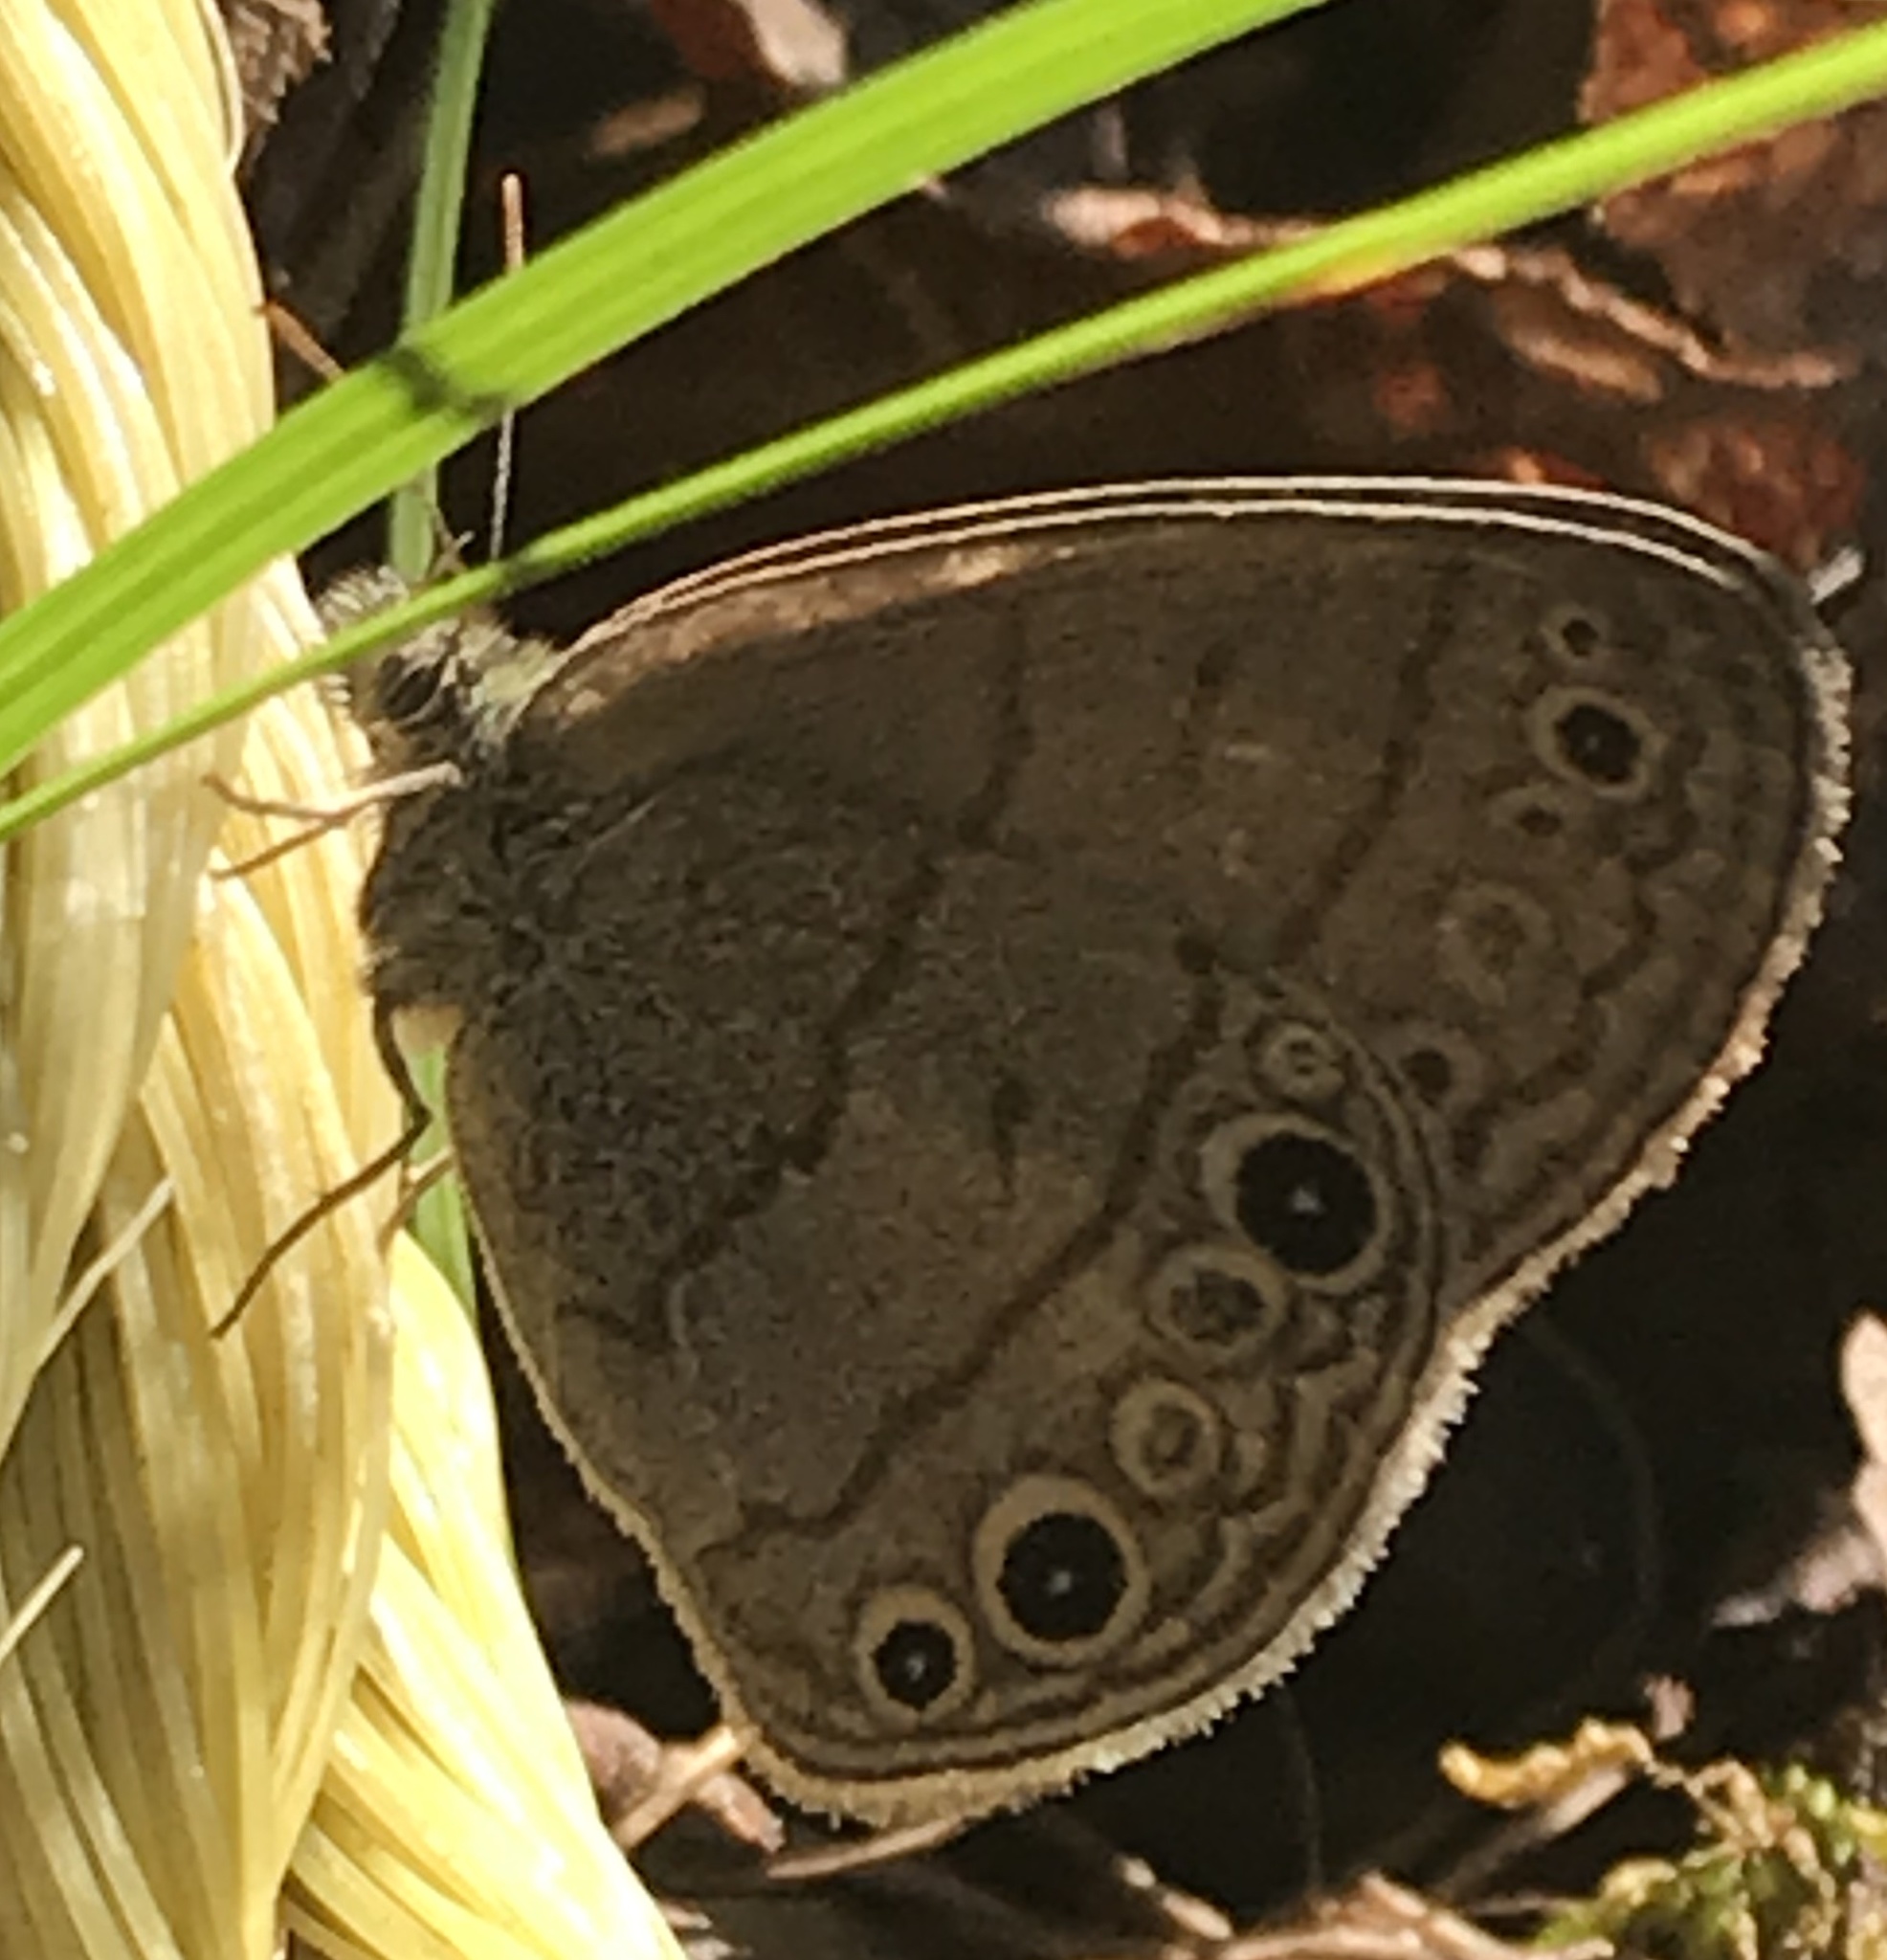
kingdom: Animalia
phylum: Arthropoda
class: Insecta
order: Lepidoptera
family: Nymphalidae
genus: Hermeuptychia
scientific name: Hermeuptychia hermes
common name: Hermes satyr
